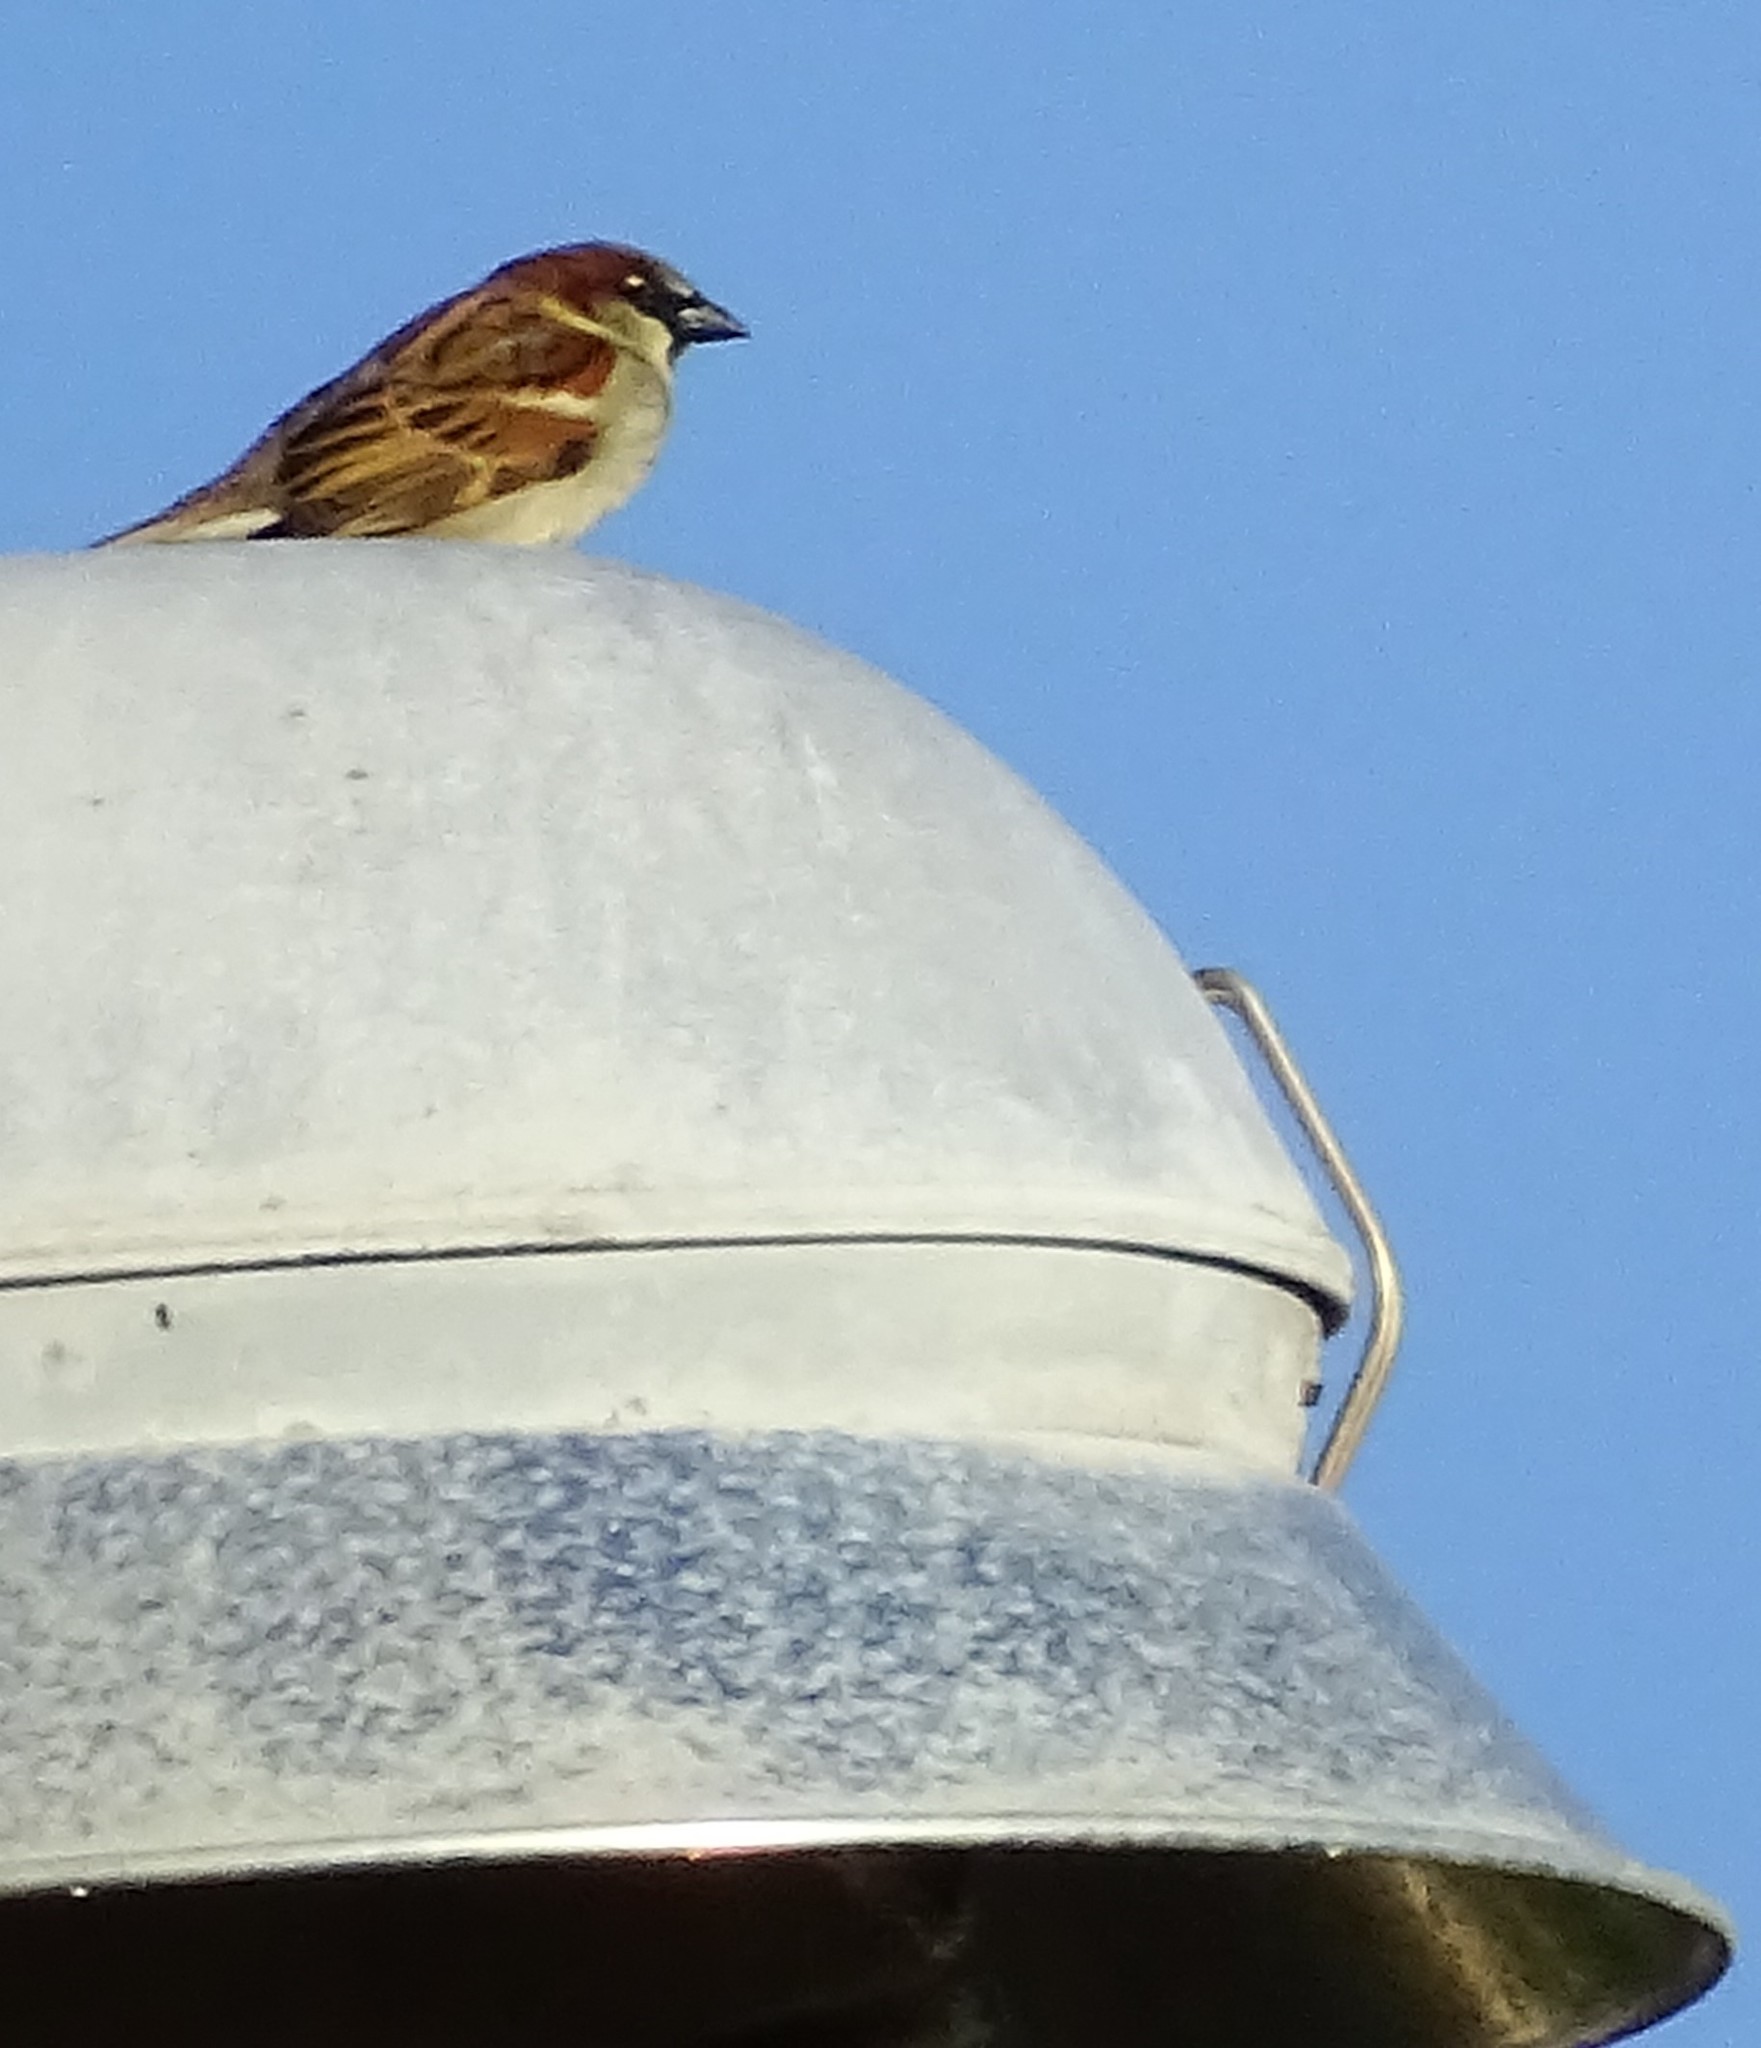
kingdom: Animalia
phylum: Chordata
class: Aves
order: Passeriformes
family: Passeridae
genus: Passer
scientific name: Passer domesticus
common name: House sparrow
